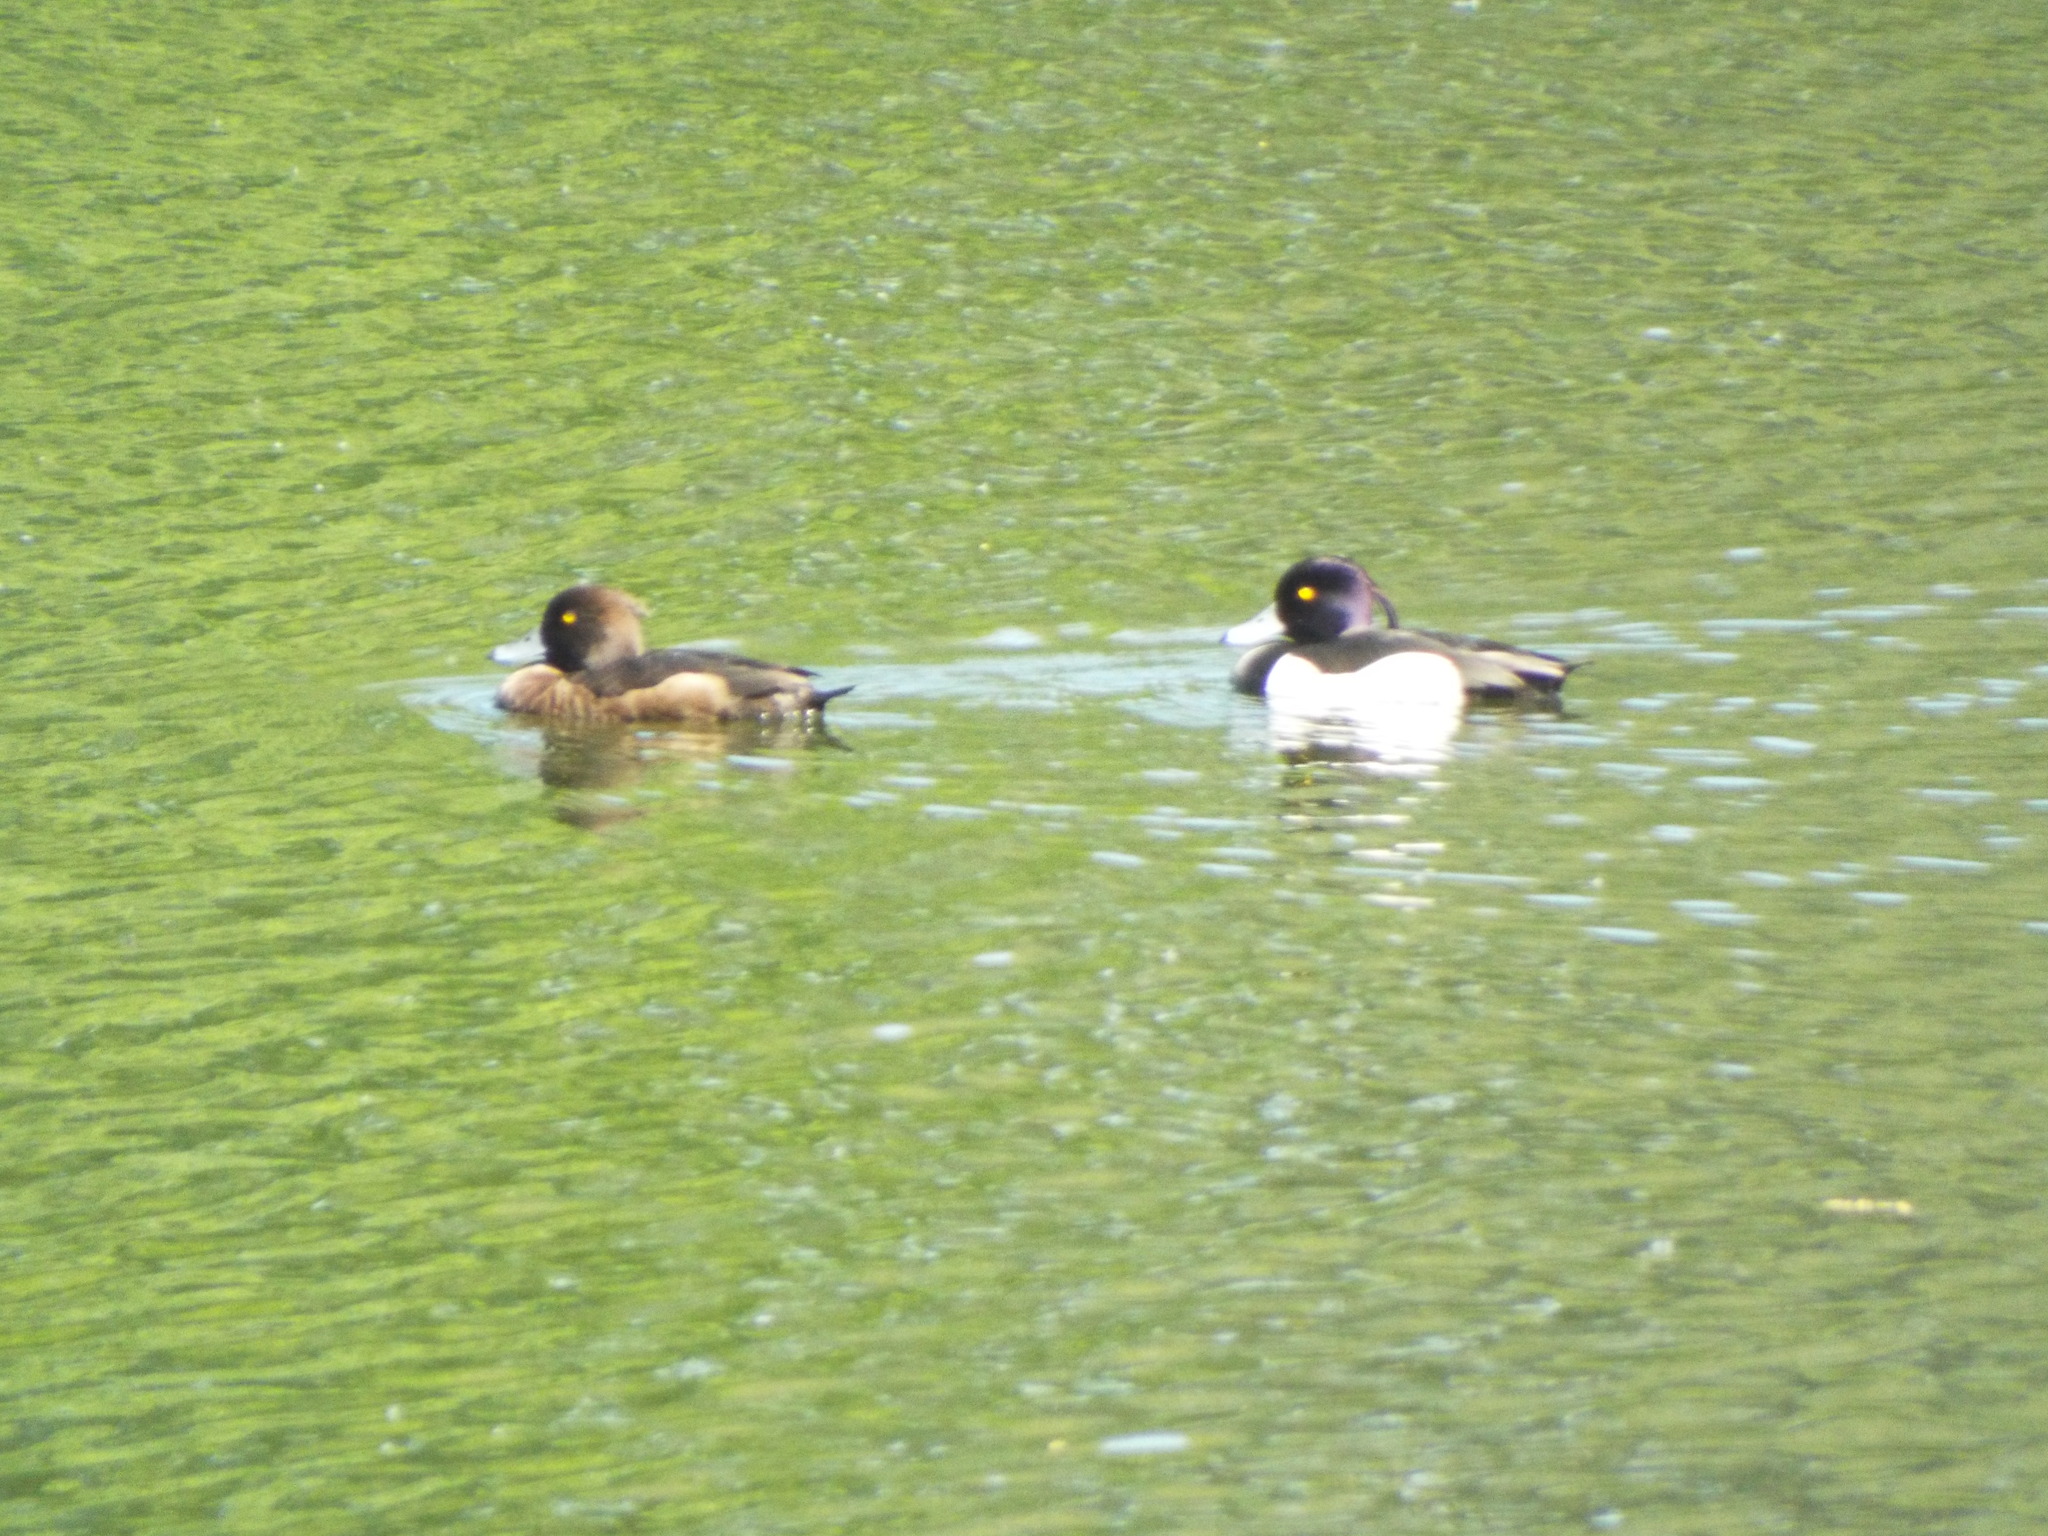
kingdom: Animalia
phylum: Chordata
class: Aves
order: Anseriformes
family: Anatidae
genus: Aythya
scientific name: Aythya fuligula
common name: Tufted duck
